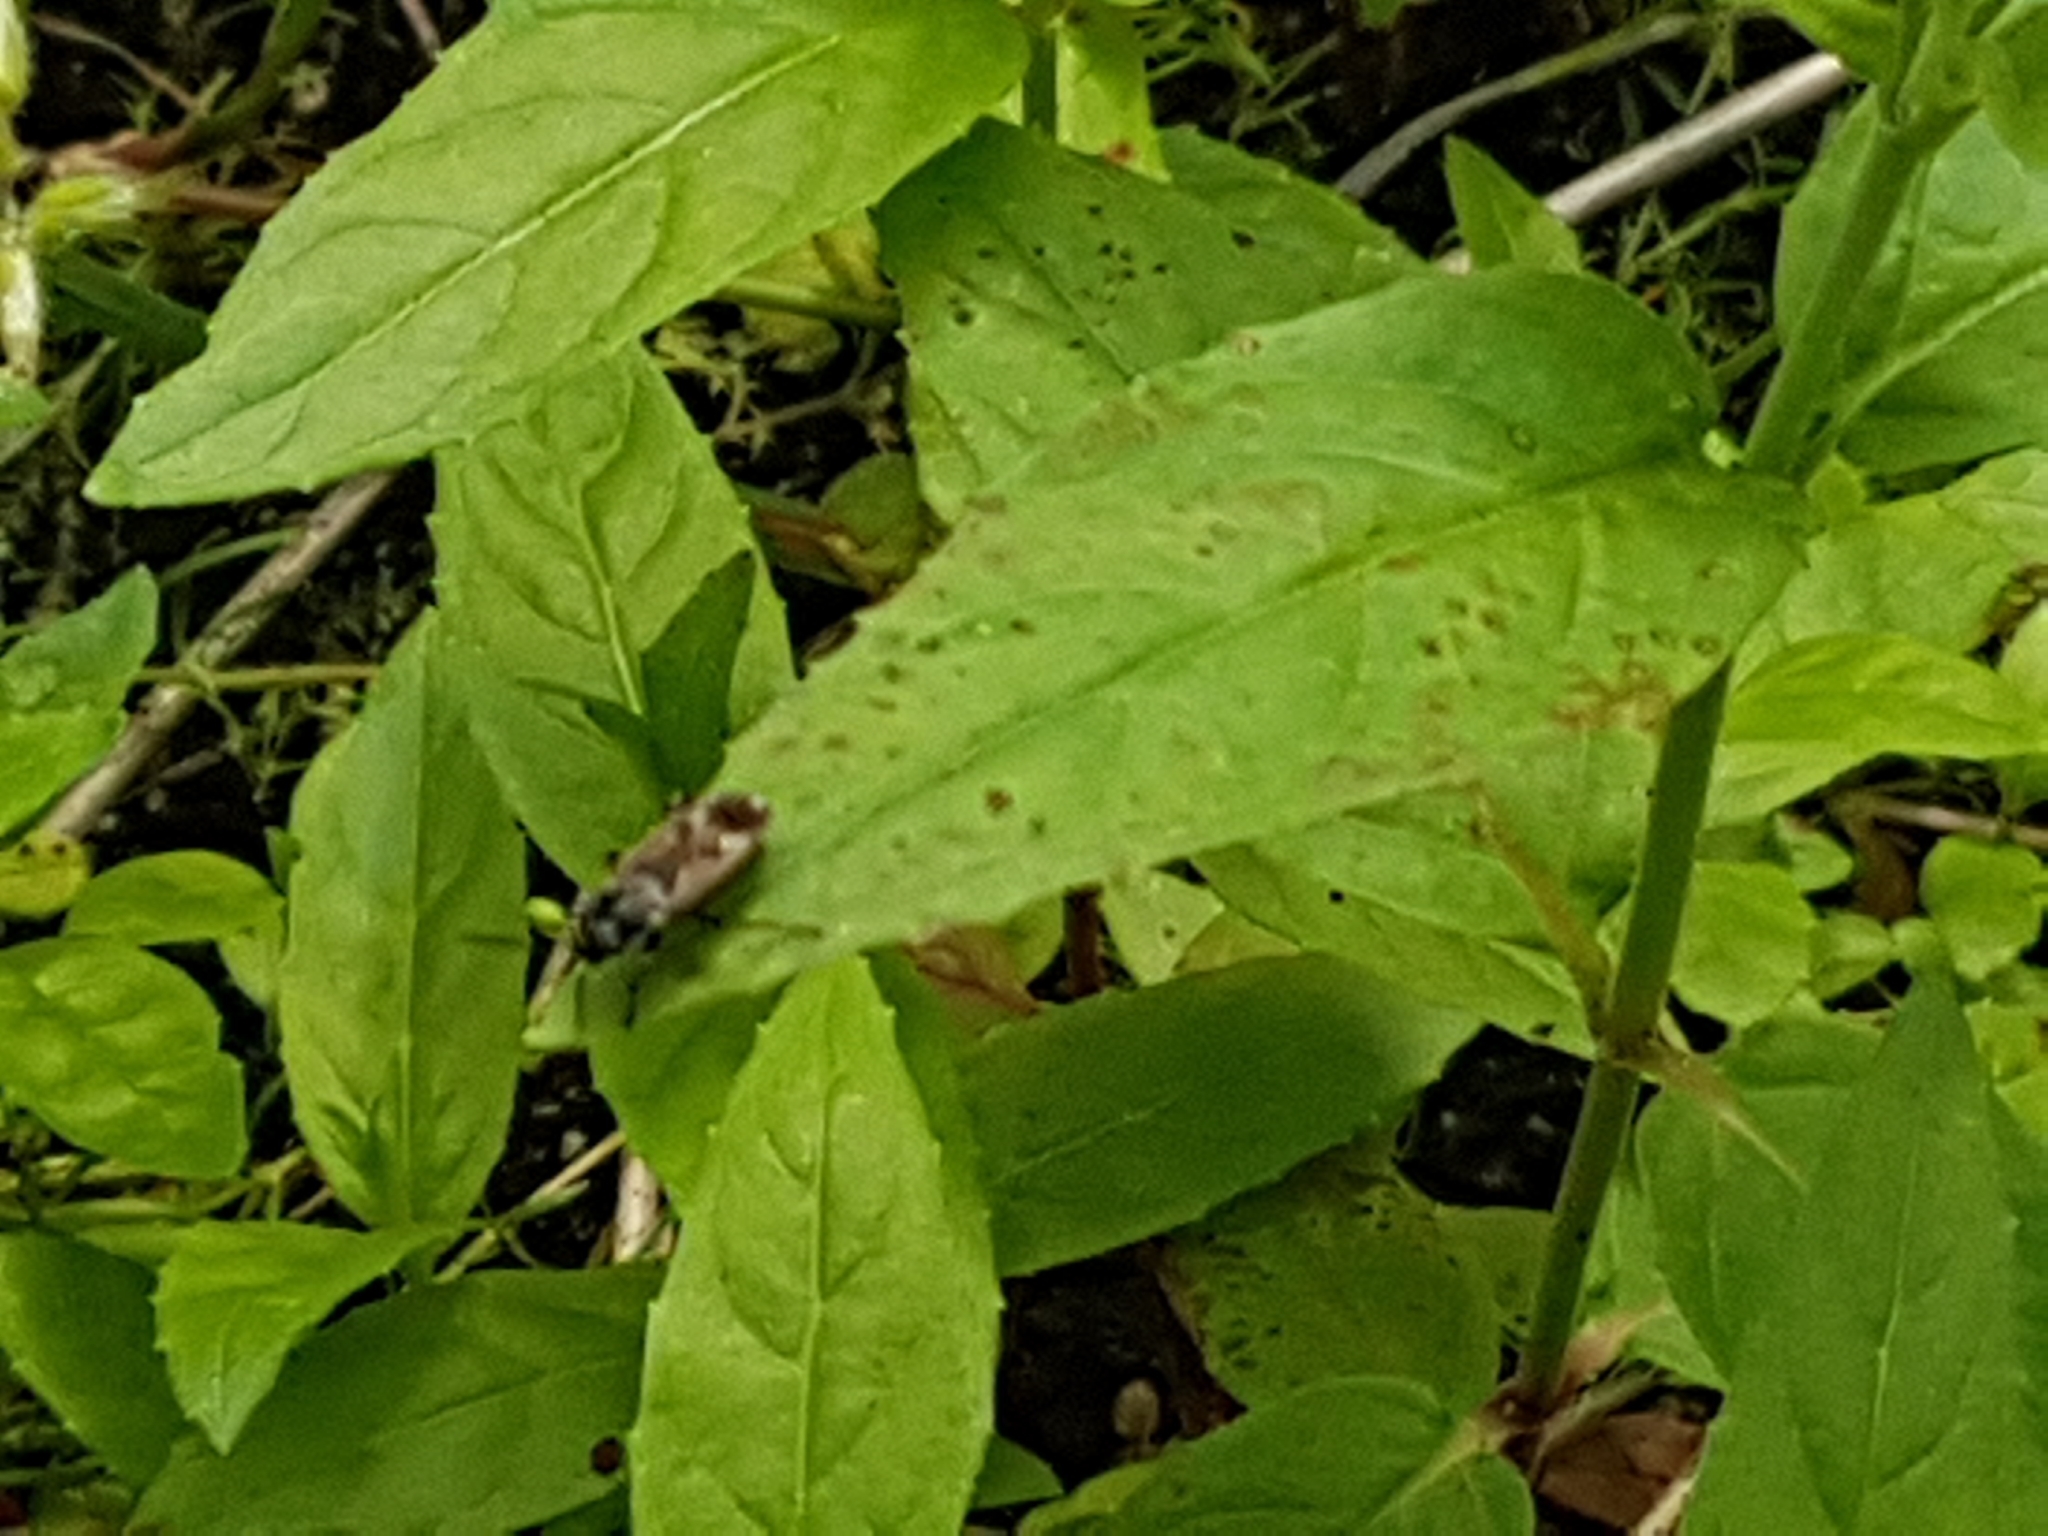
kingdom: Animalia
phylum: Arthropoda
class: Insecta
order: Hemiptera
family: Rhyparochromidae
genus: Rhyparochromus
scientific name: Rhyparochromus vulgaris
